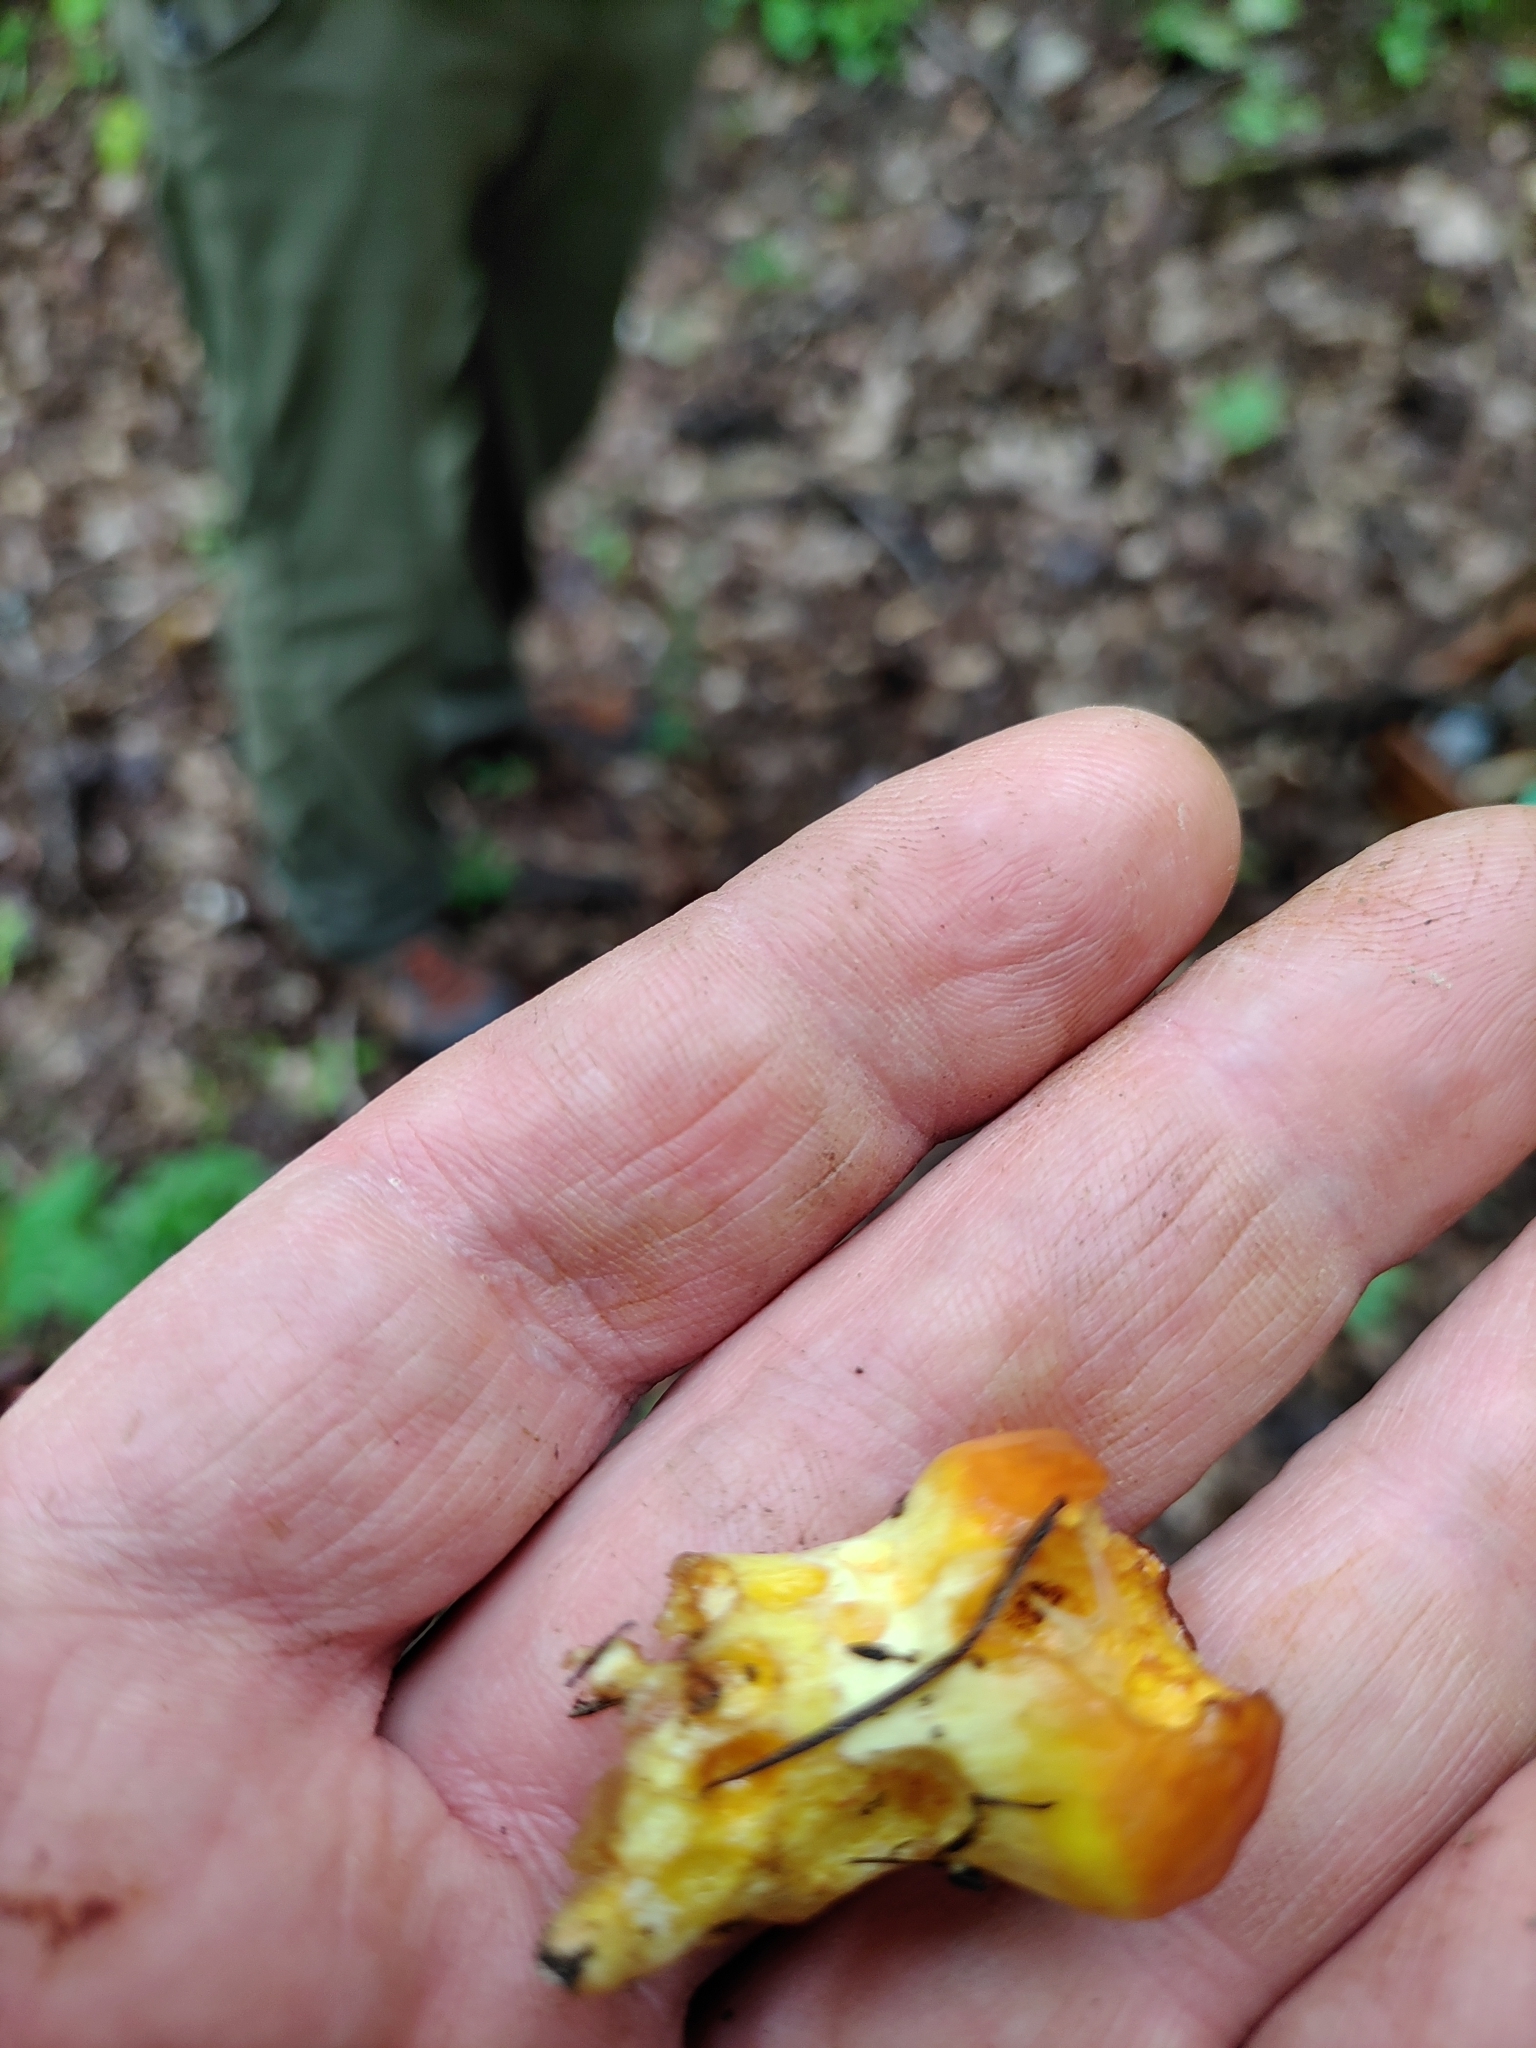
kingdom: Fungi
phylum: Basidiomycota
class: Agaricomycetes
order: Boletales
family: Suillaceae
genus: Suillus
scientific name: Suillus grevillei
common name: Larch bolete
